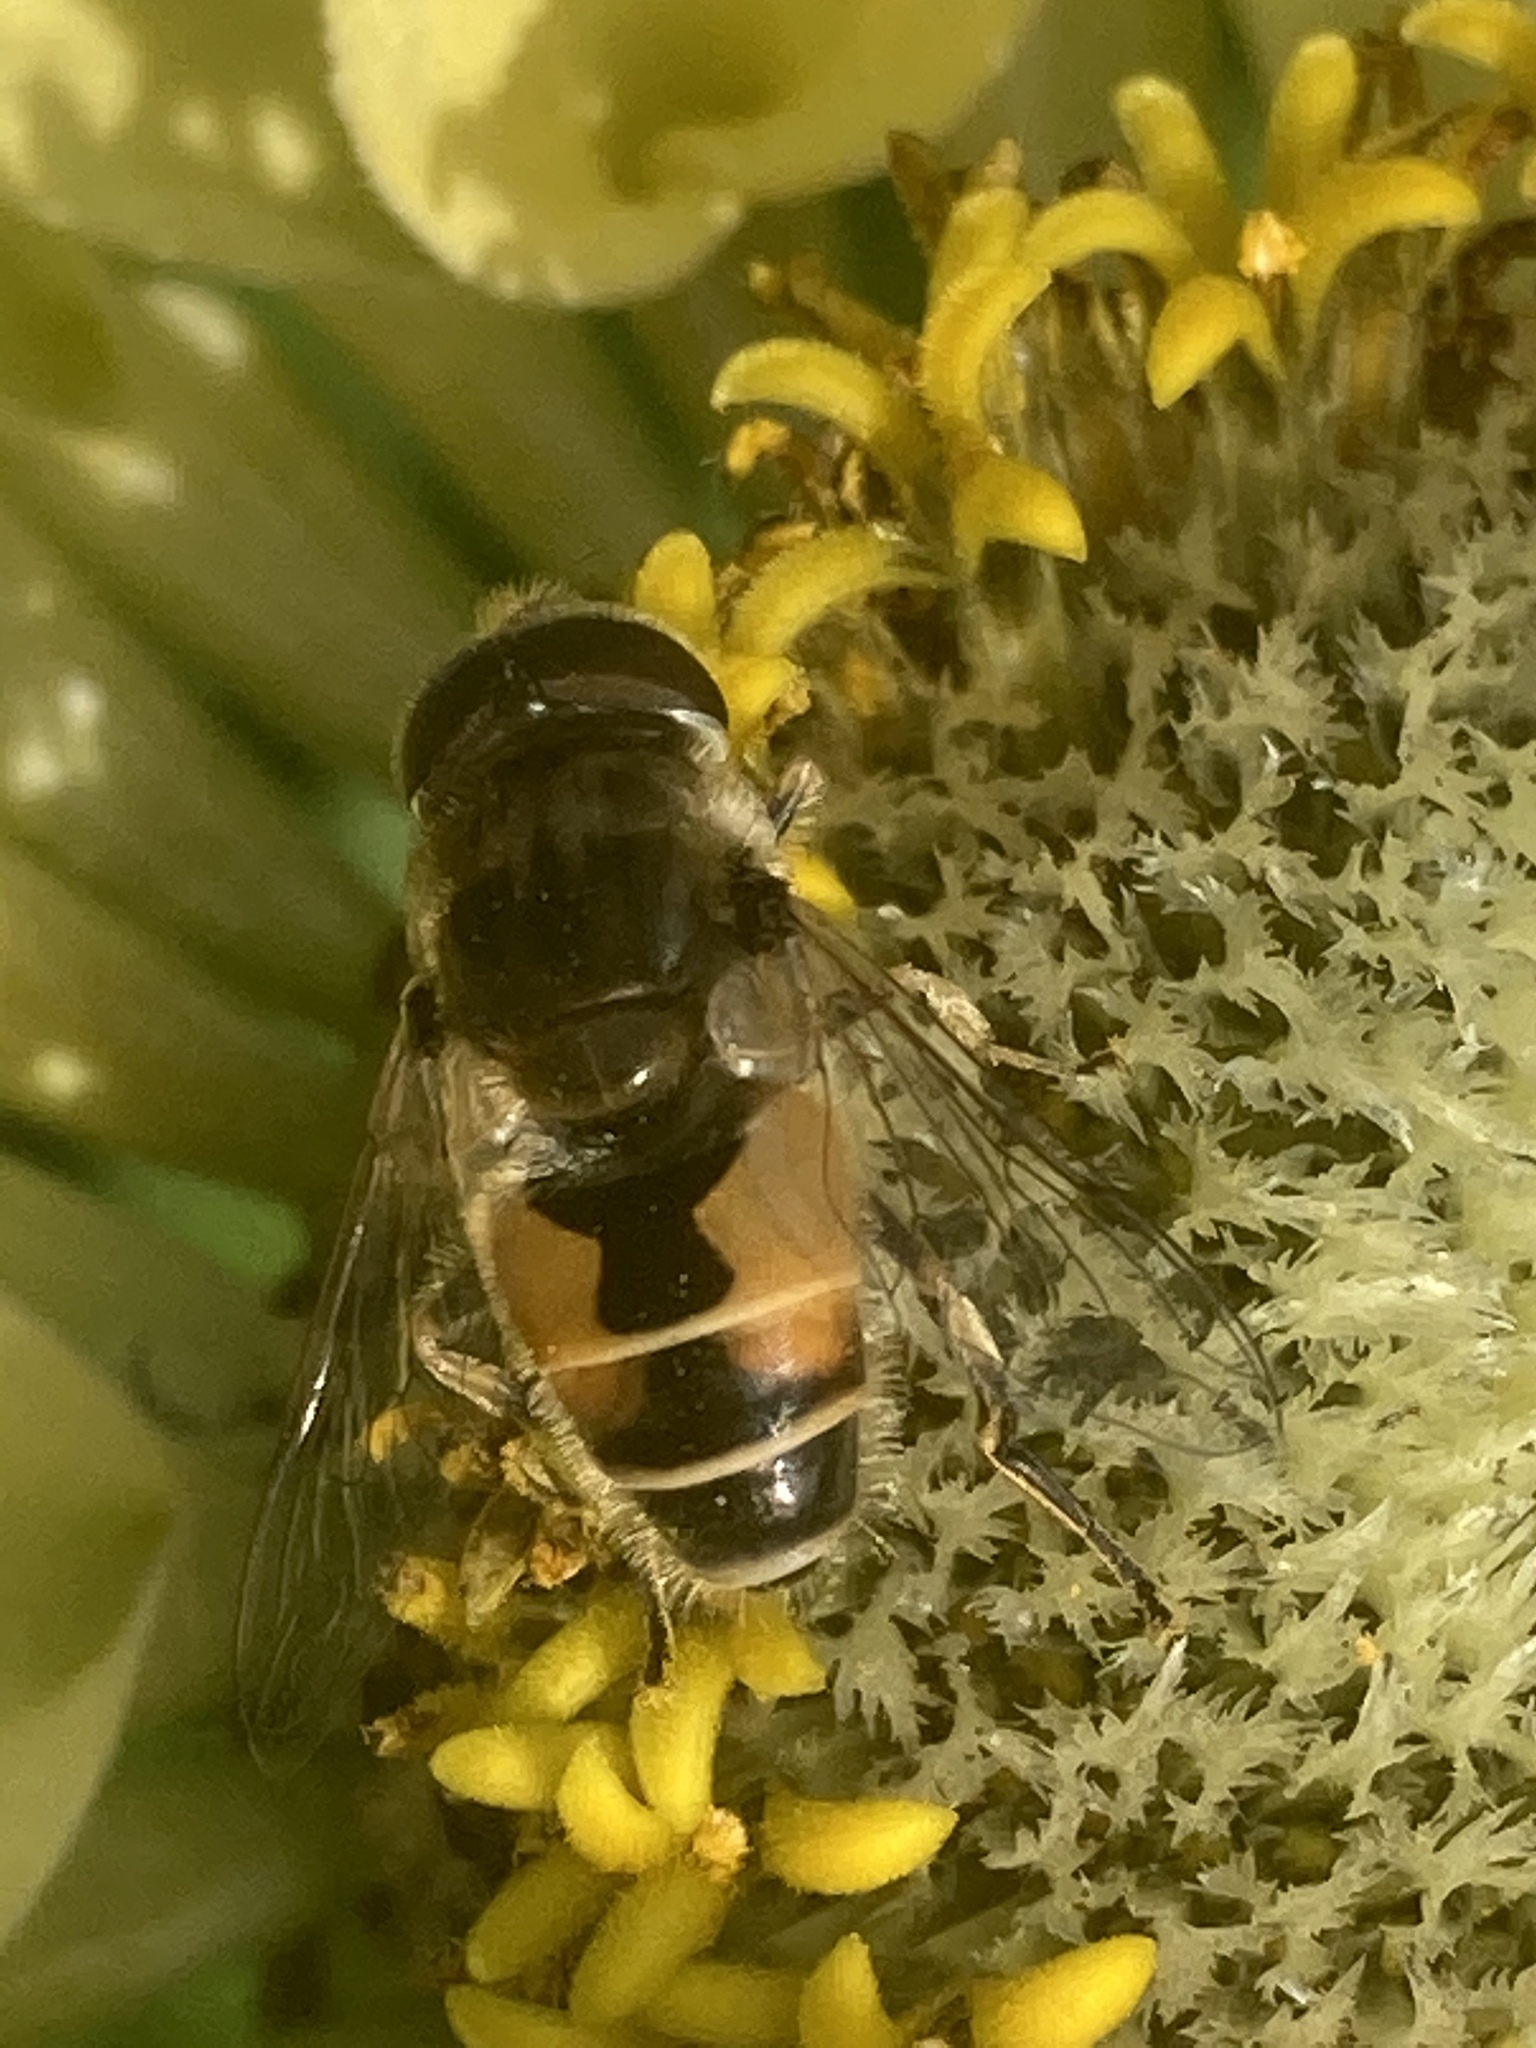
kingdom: Animalia
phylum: Arthropoda
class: Insecta
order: Diptera
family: Syrphidae
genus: Eristalis
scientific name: Eristalis arbustorum
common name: Hover fly
